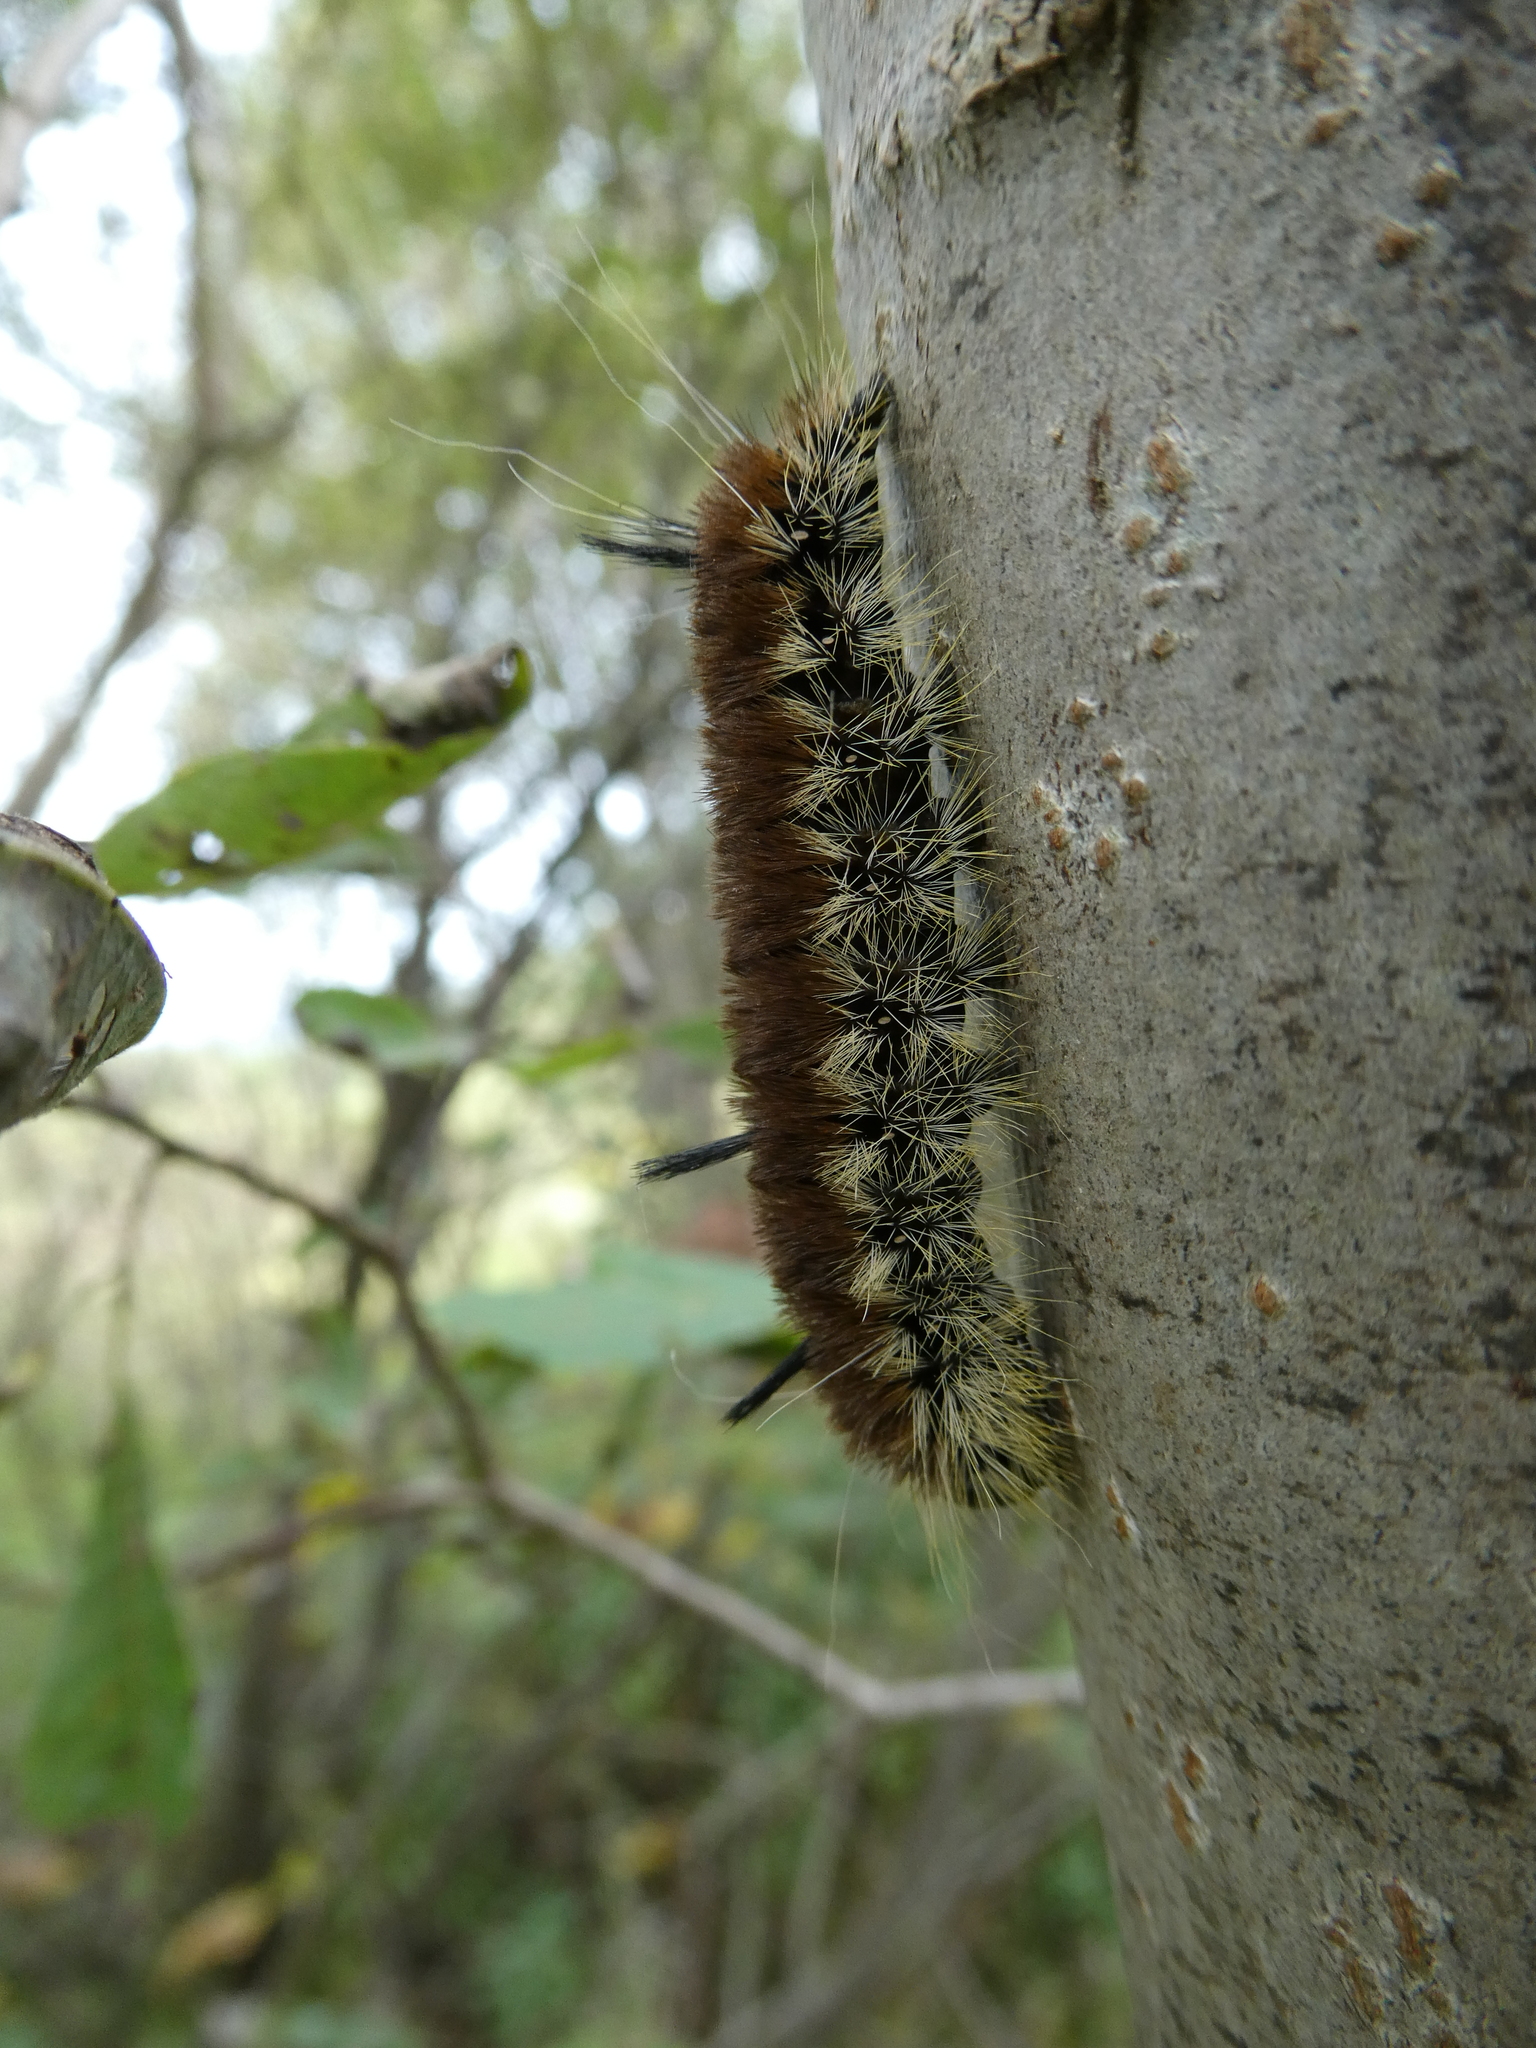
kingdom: Animalia
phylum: Arthropoda
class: Insecta
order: Lepidoptera
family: Noctuidae
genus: Acronicta
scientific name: Acronicta insita
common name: Large gray dagger
